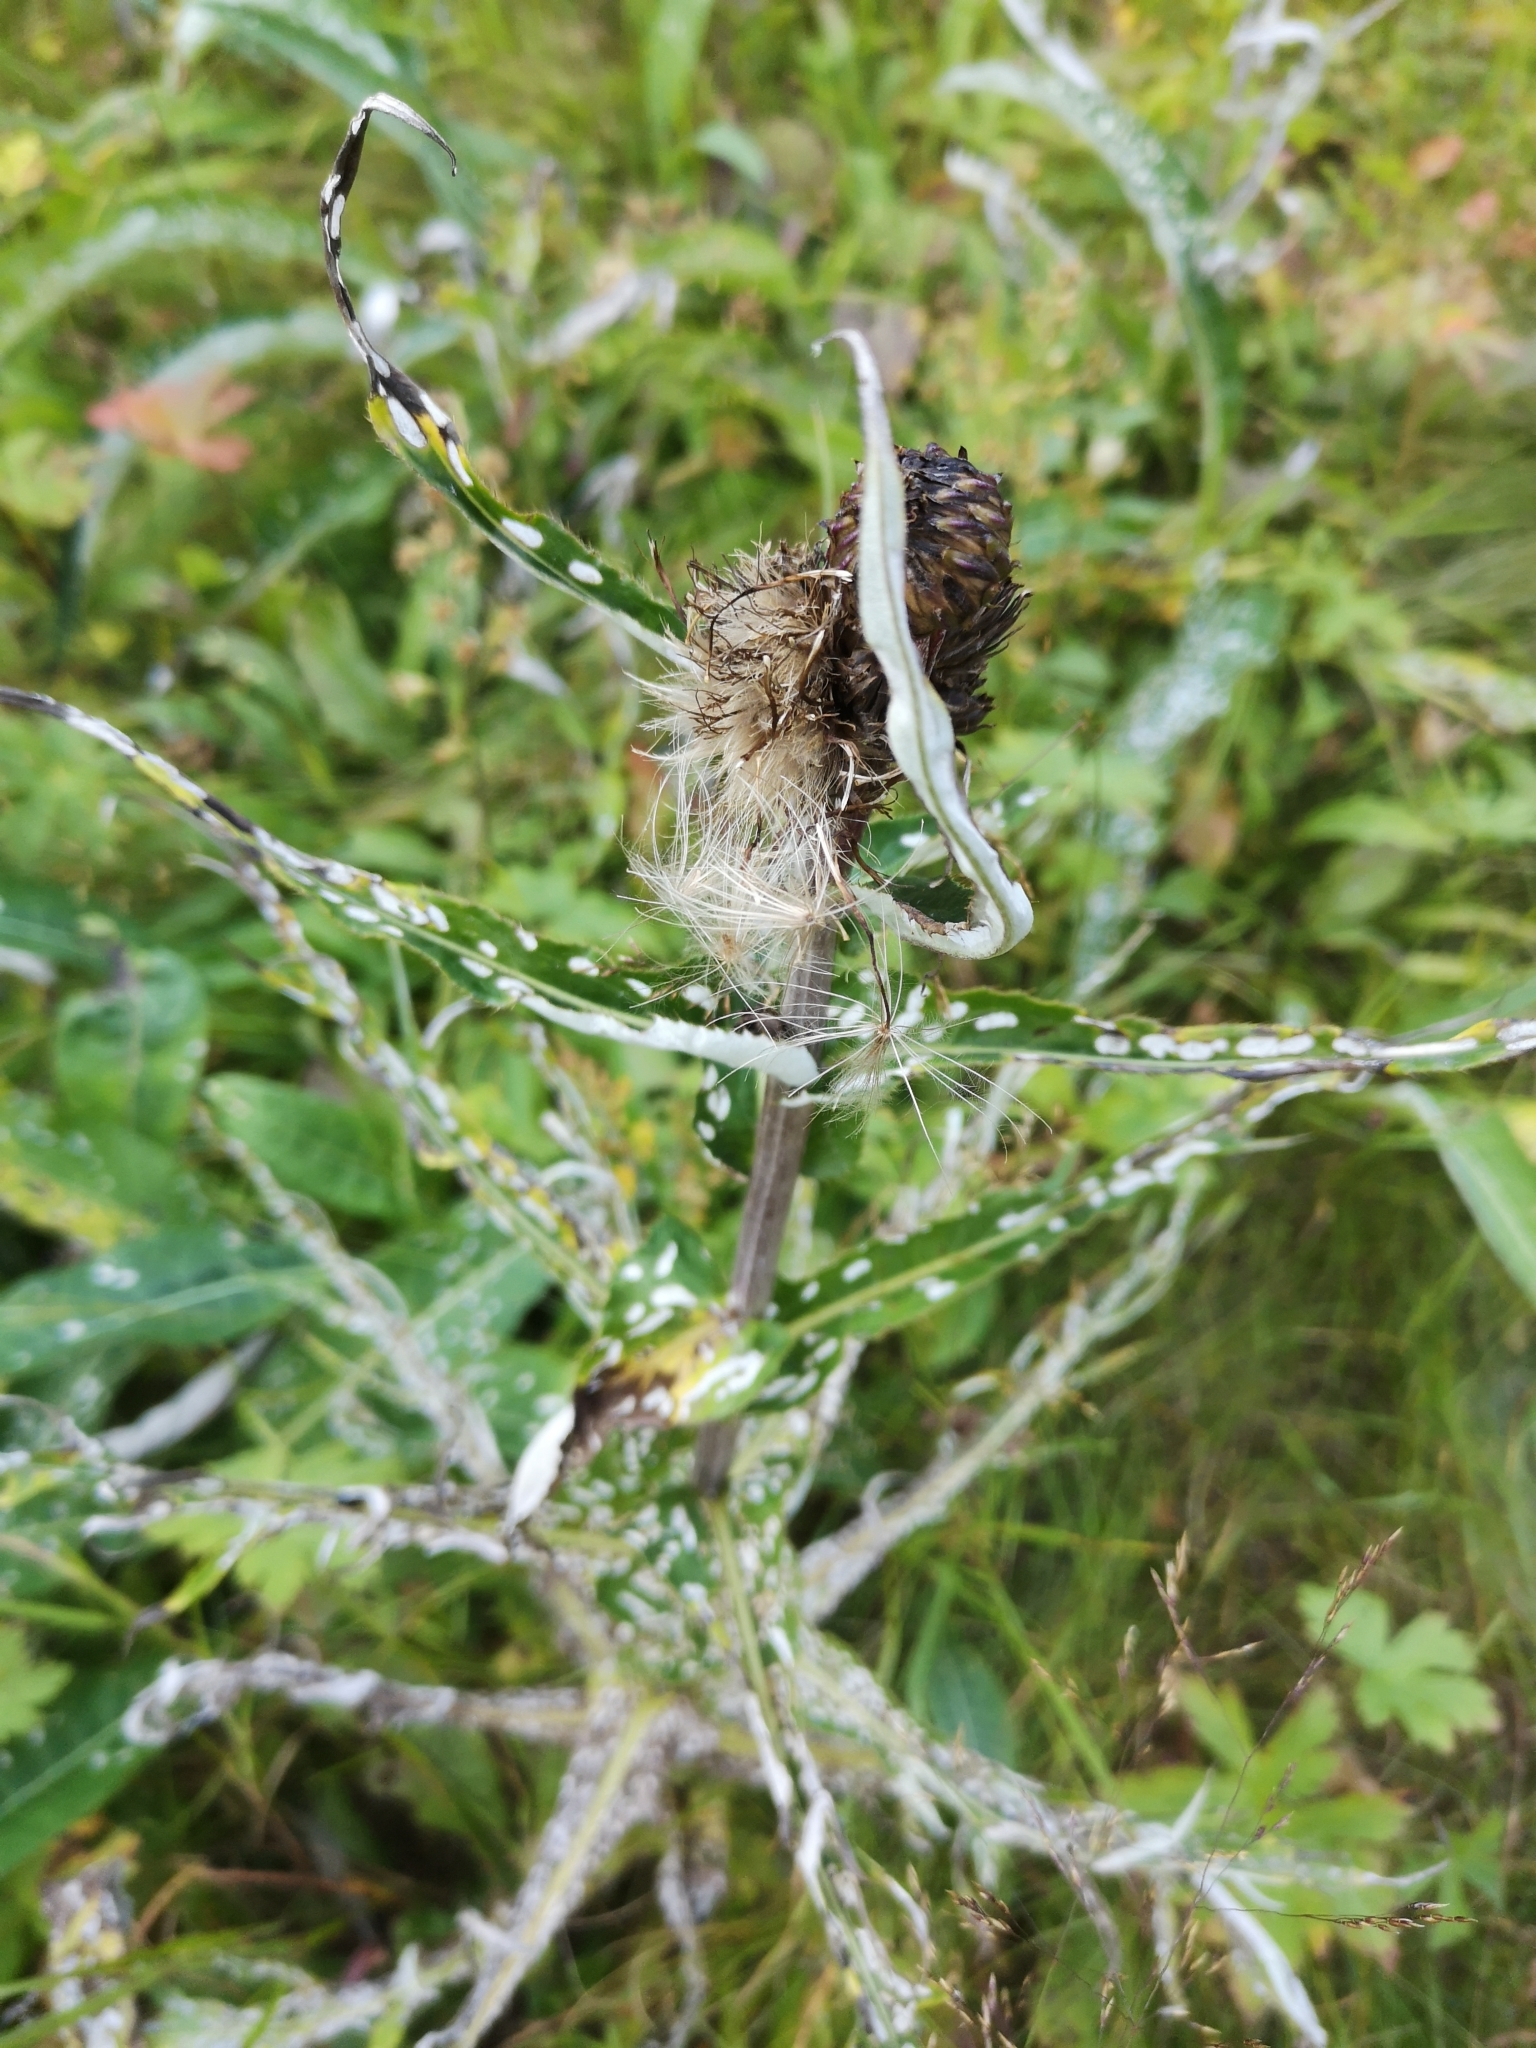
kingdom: Plantae
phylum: Tracheophyta
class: Magnoliopsida
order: Asterales
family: Asteraceae
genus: Cirsium
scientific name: Cirsium heterophyllum
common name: Melancholy thistle
